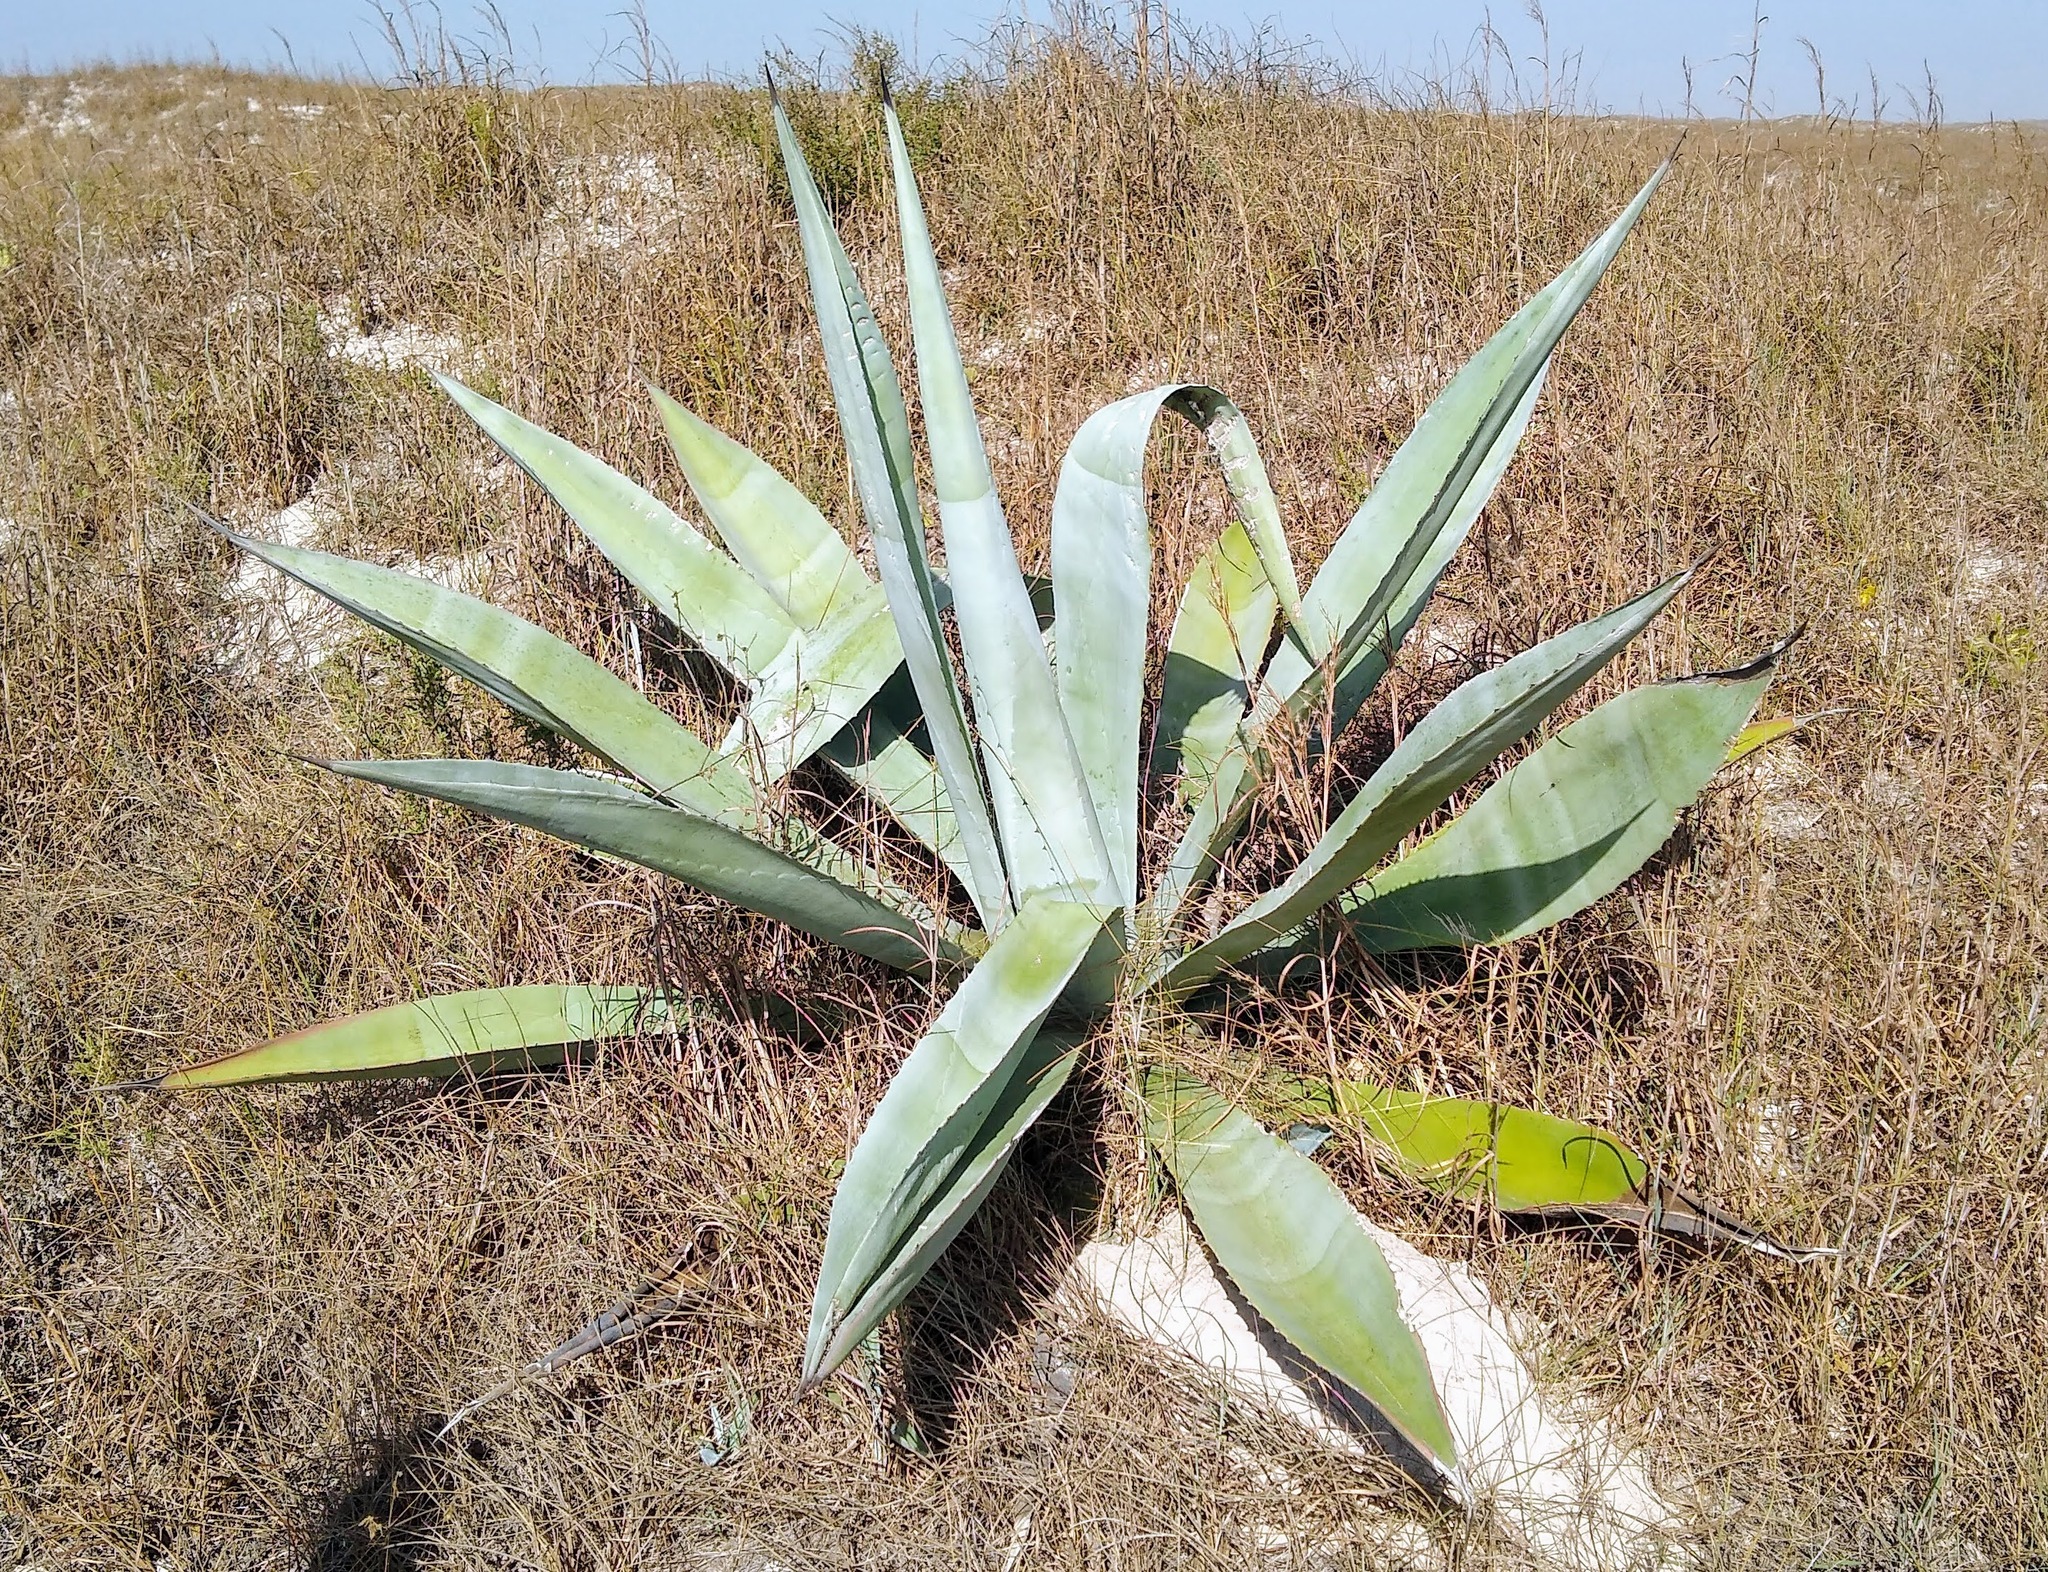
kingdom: Plantae
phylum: Tracheophyta
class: Liliopsida
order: Asparagales
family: Asparagaceae
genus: Agave
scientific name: Agave americana
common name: Centuryplant
